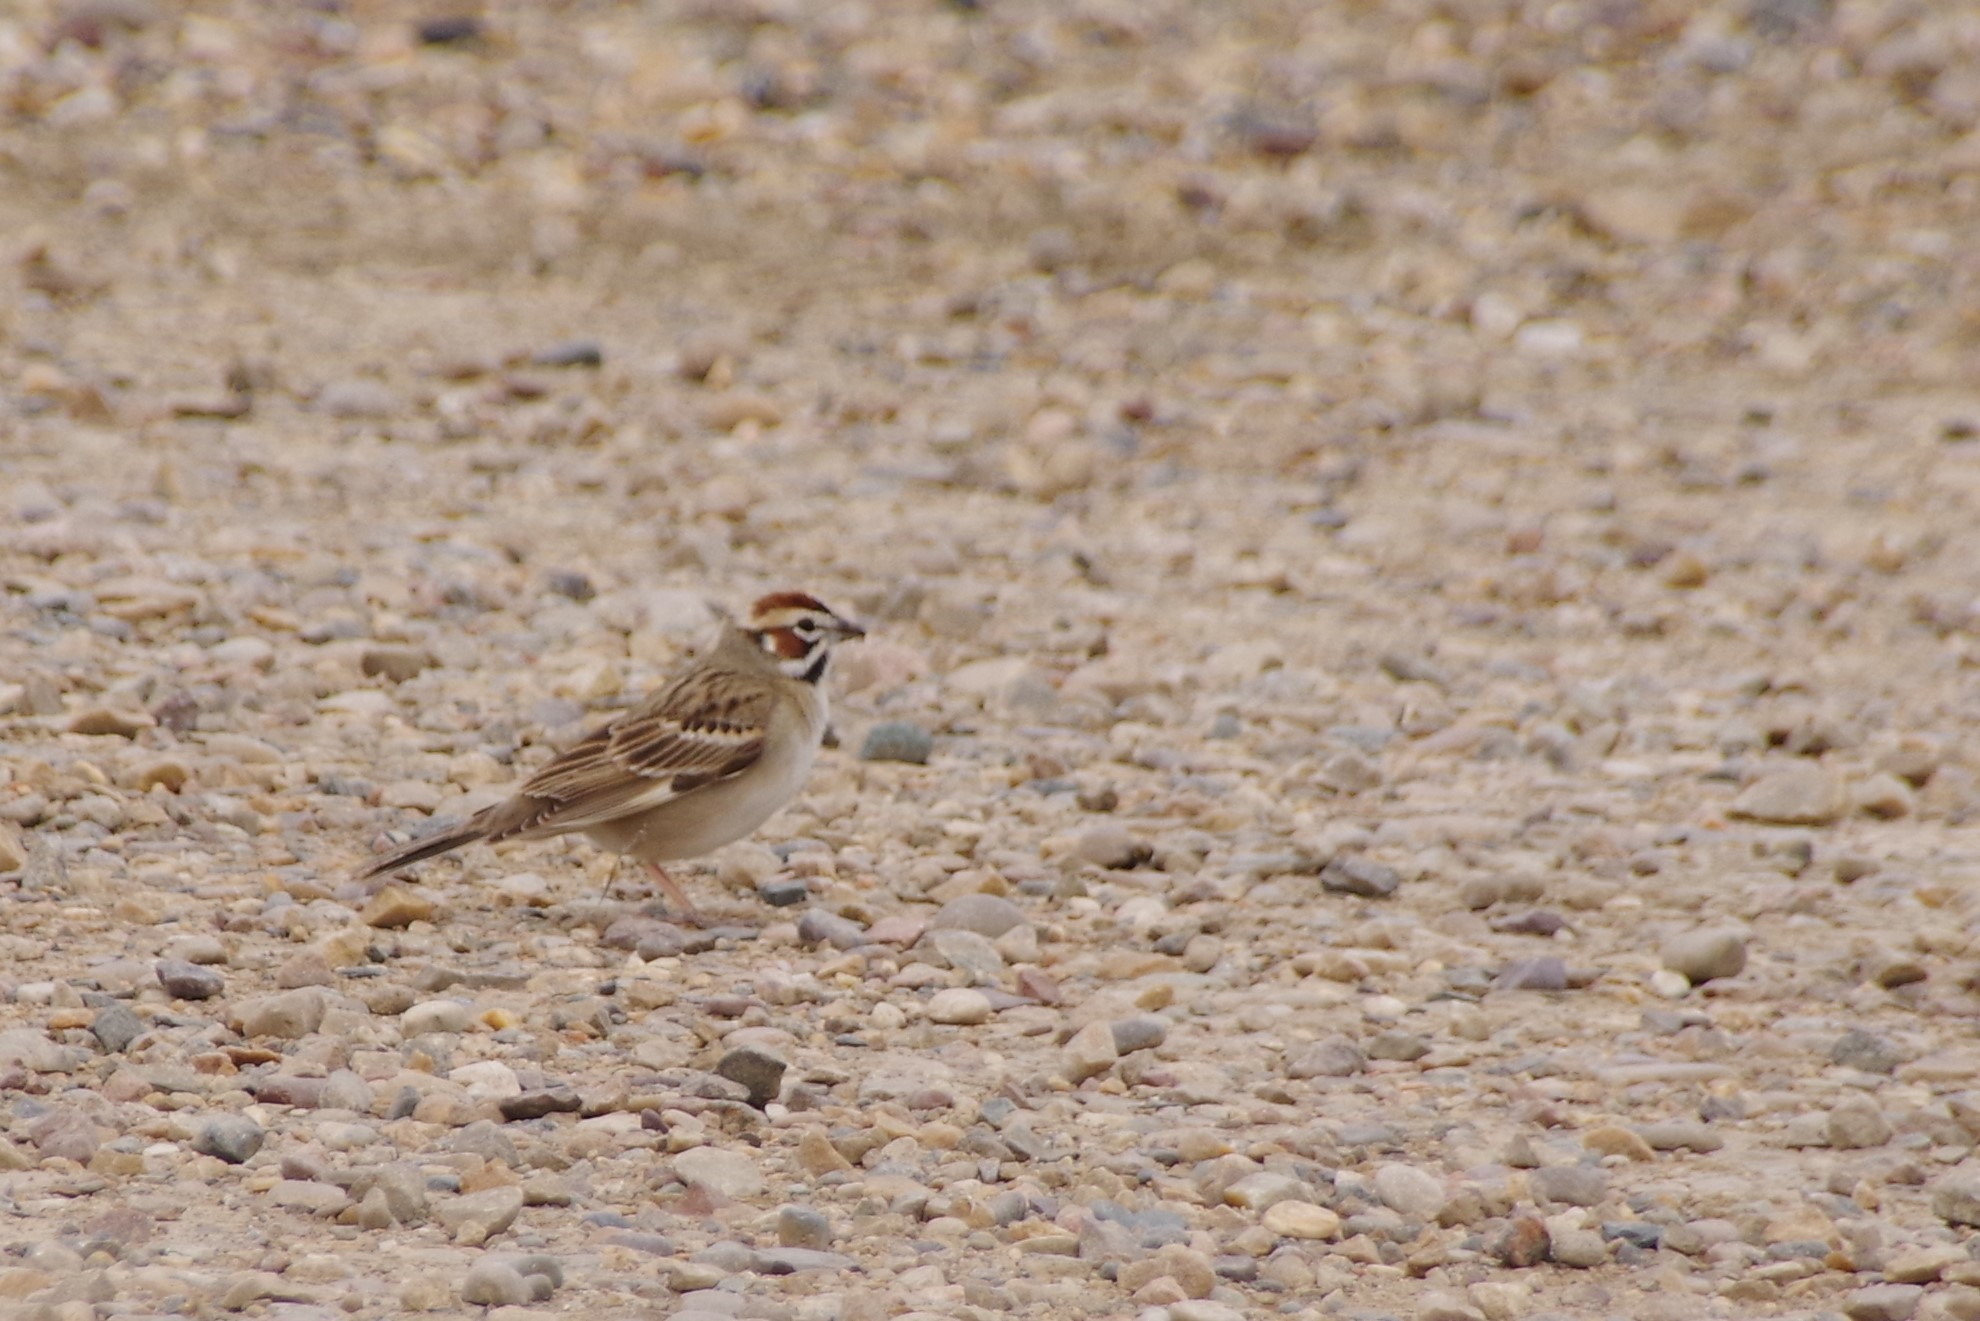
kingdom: Animalia
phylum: Chordata
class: Aves
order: Passeriformes
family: Passerellidae
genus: Chondestes
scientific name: Chondestes grammacus
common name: Lark sparrow
